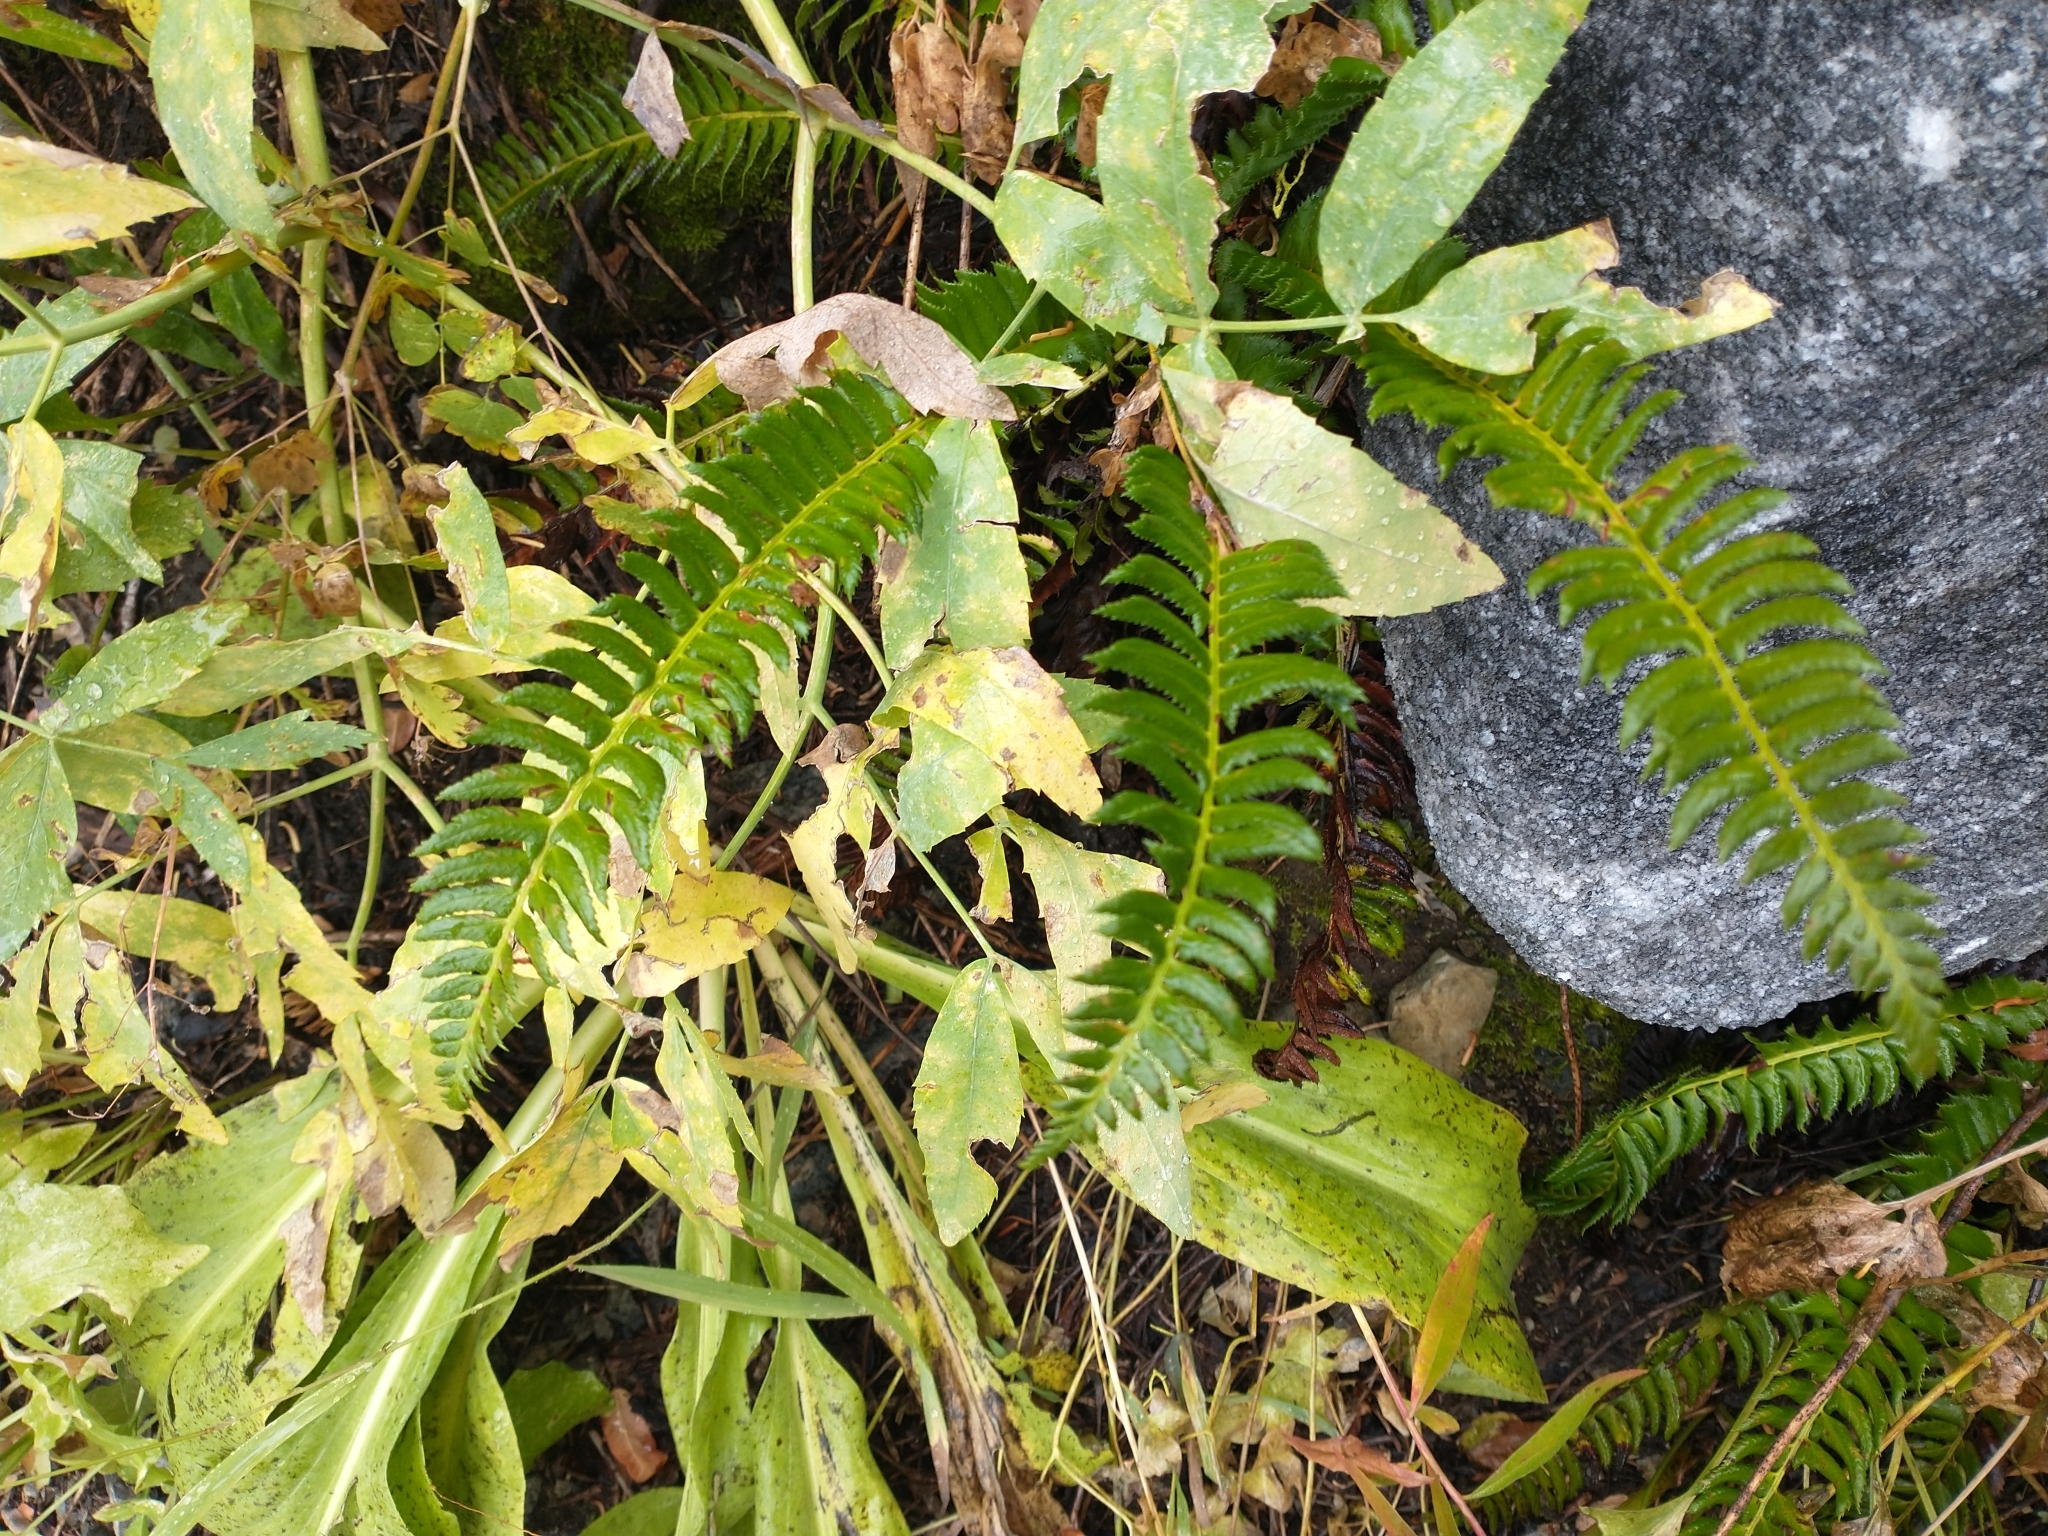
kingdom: Plantae
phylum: Tracheophyta
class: Polypodiopsida
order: Polypodiales
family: Dryopteridaceae
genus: Polystichum
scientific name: Polystichum lonchitis
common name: Holly fern
